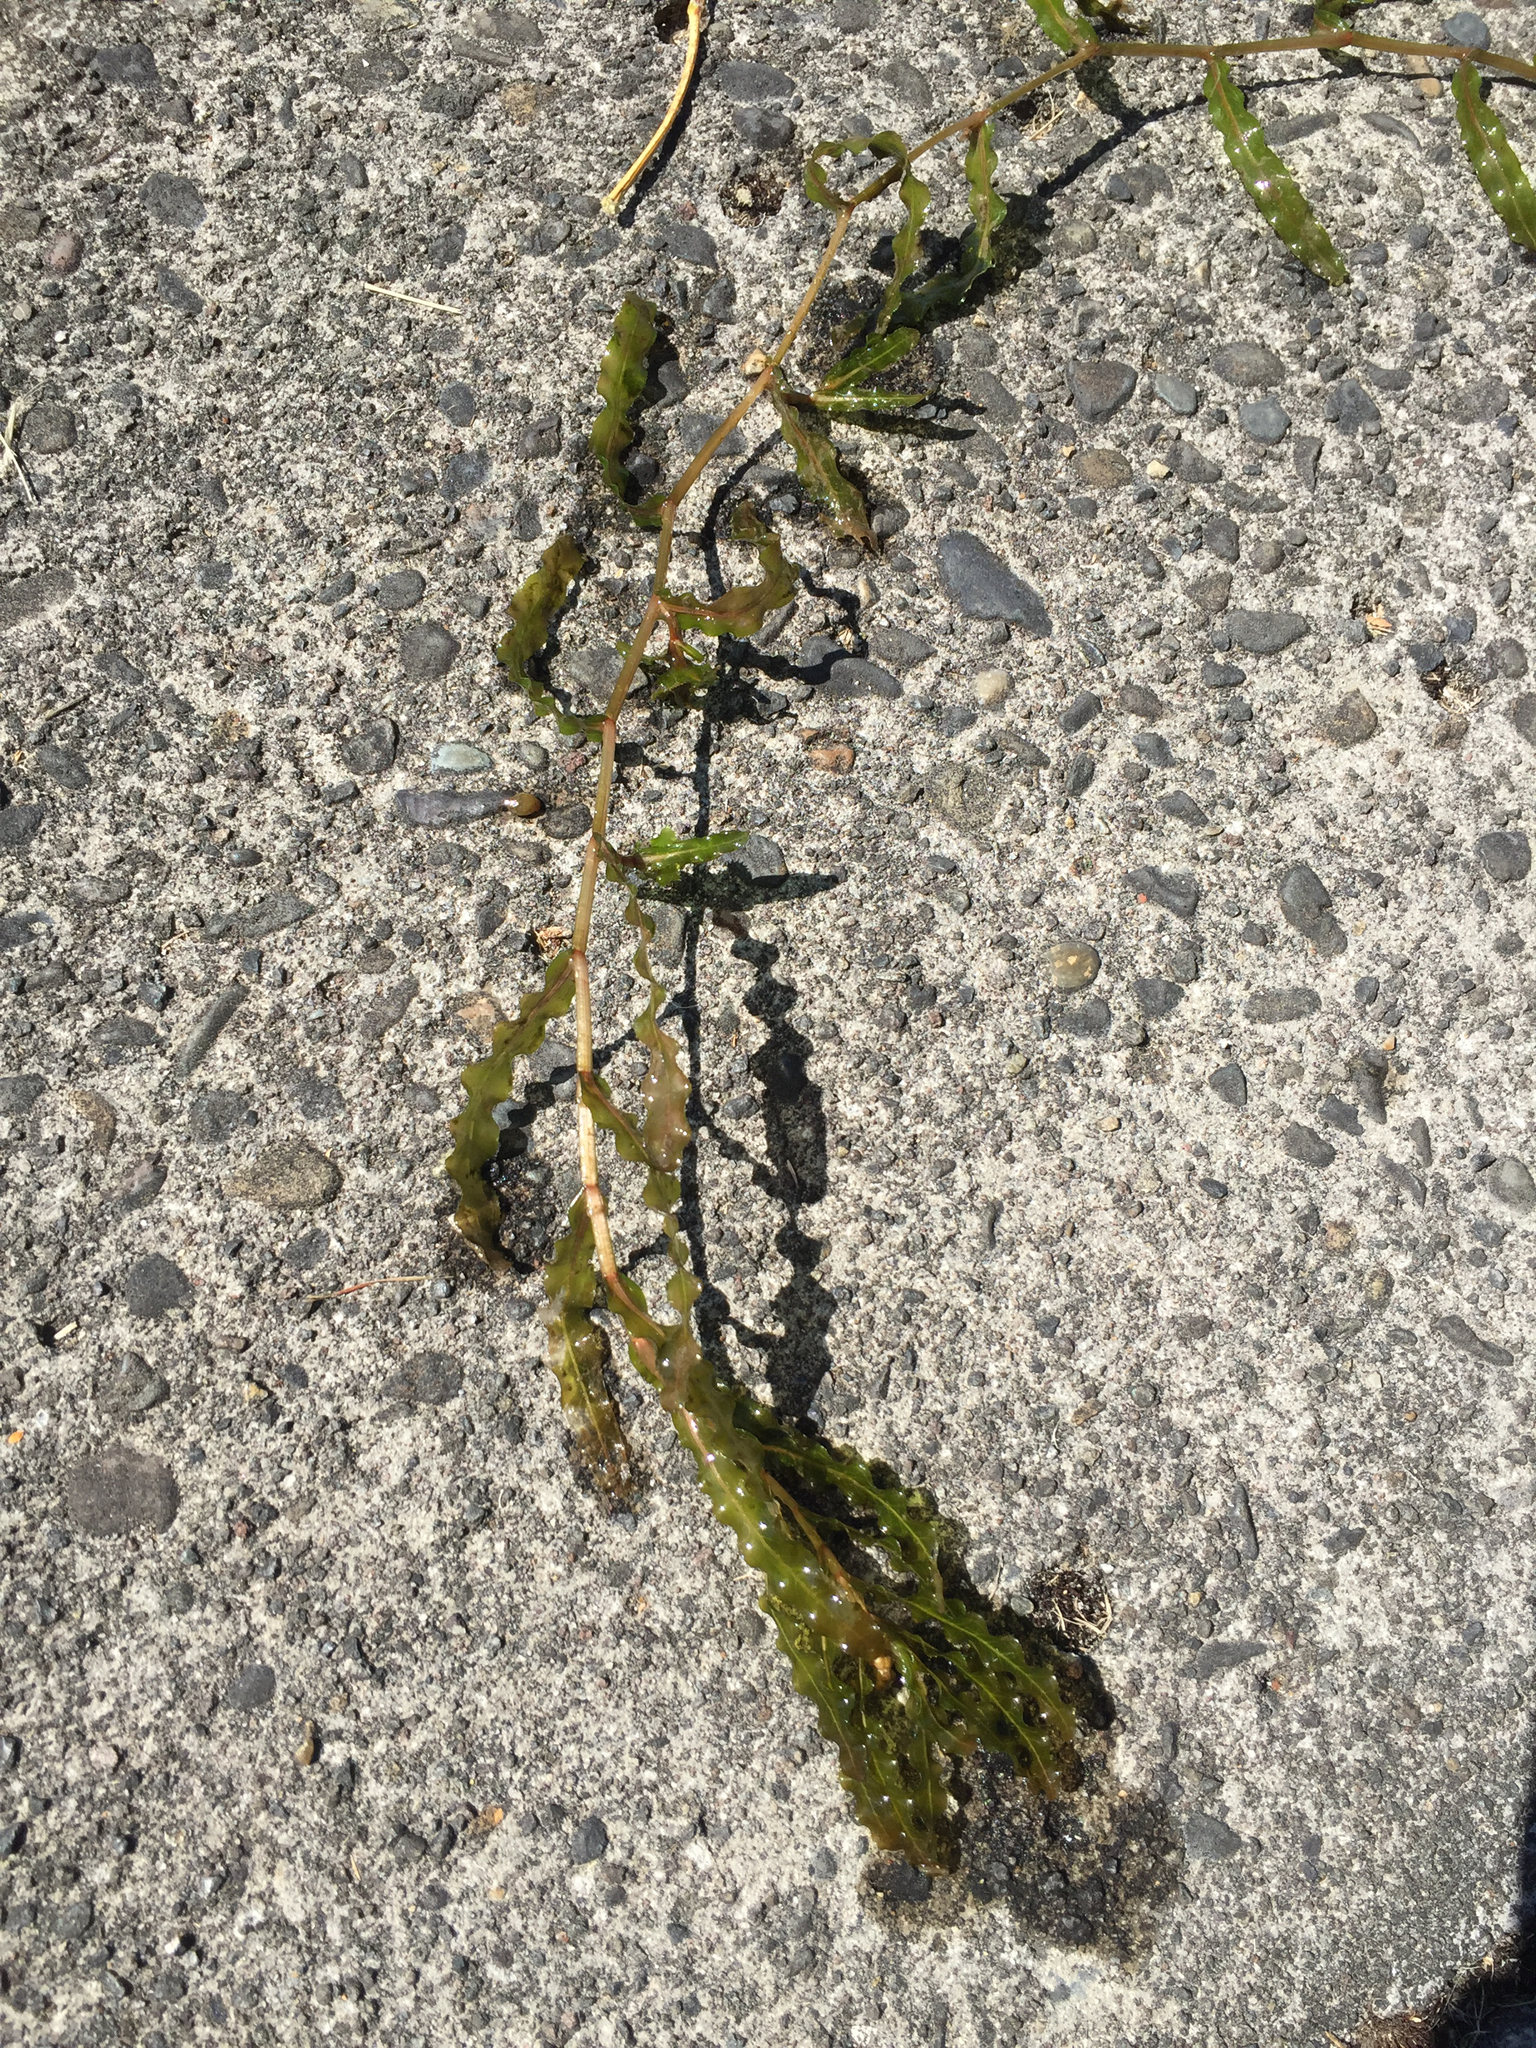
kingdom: Plantae
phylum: Tracheophyta
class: Liliopsida
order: Alismatales
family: Potamogetonaceae
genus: Potamogeton
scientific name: Potamogeton crispus
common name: Curled pondweed
